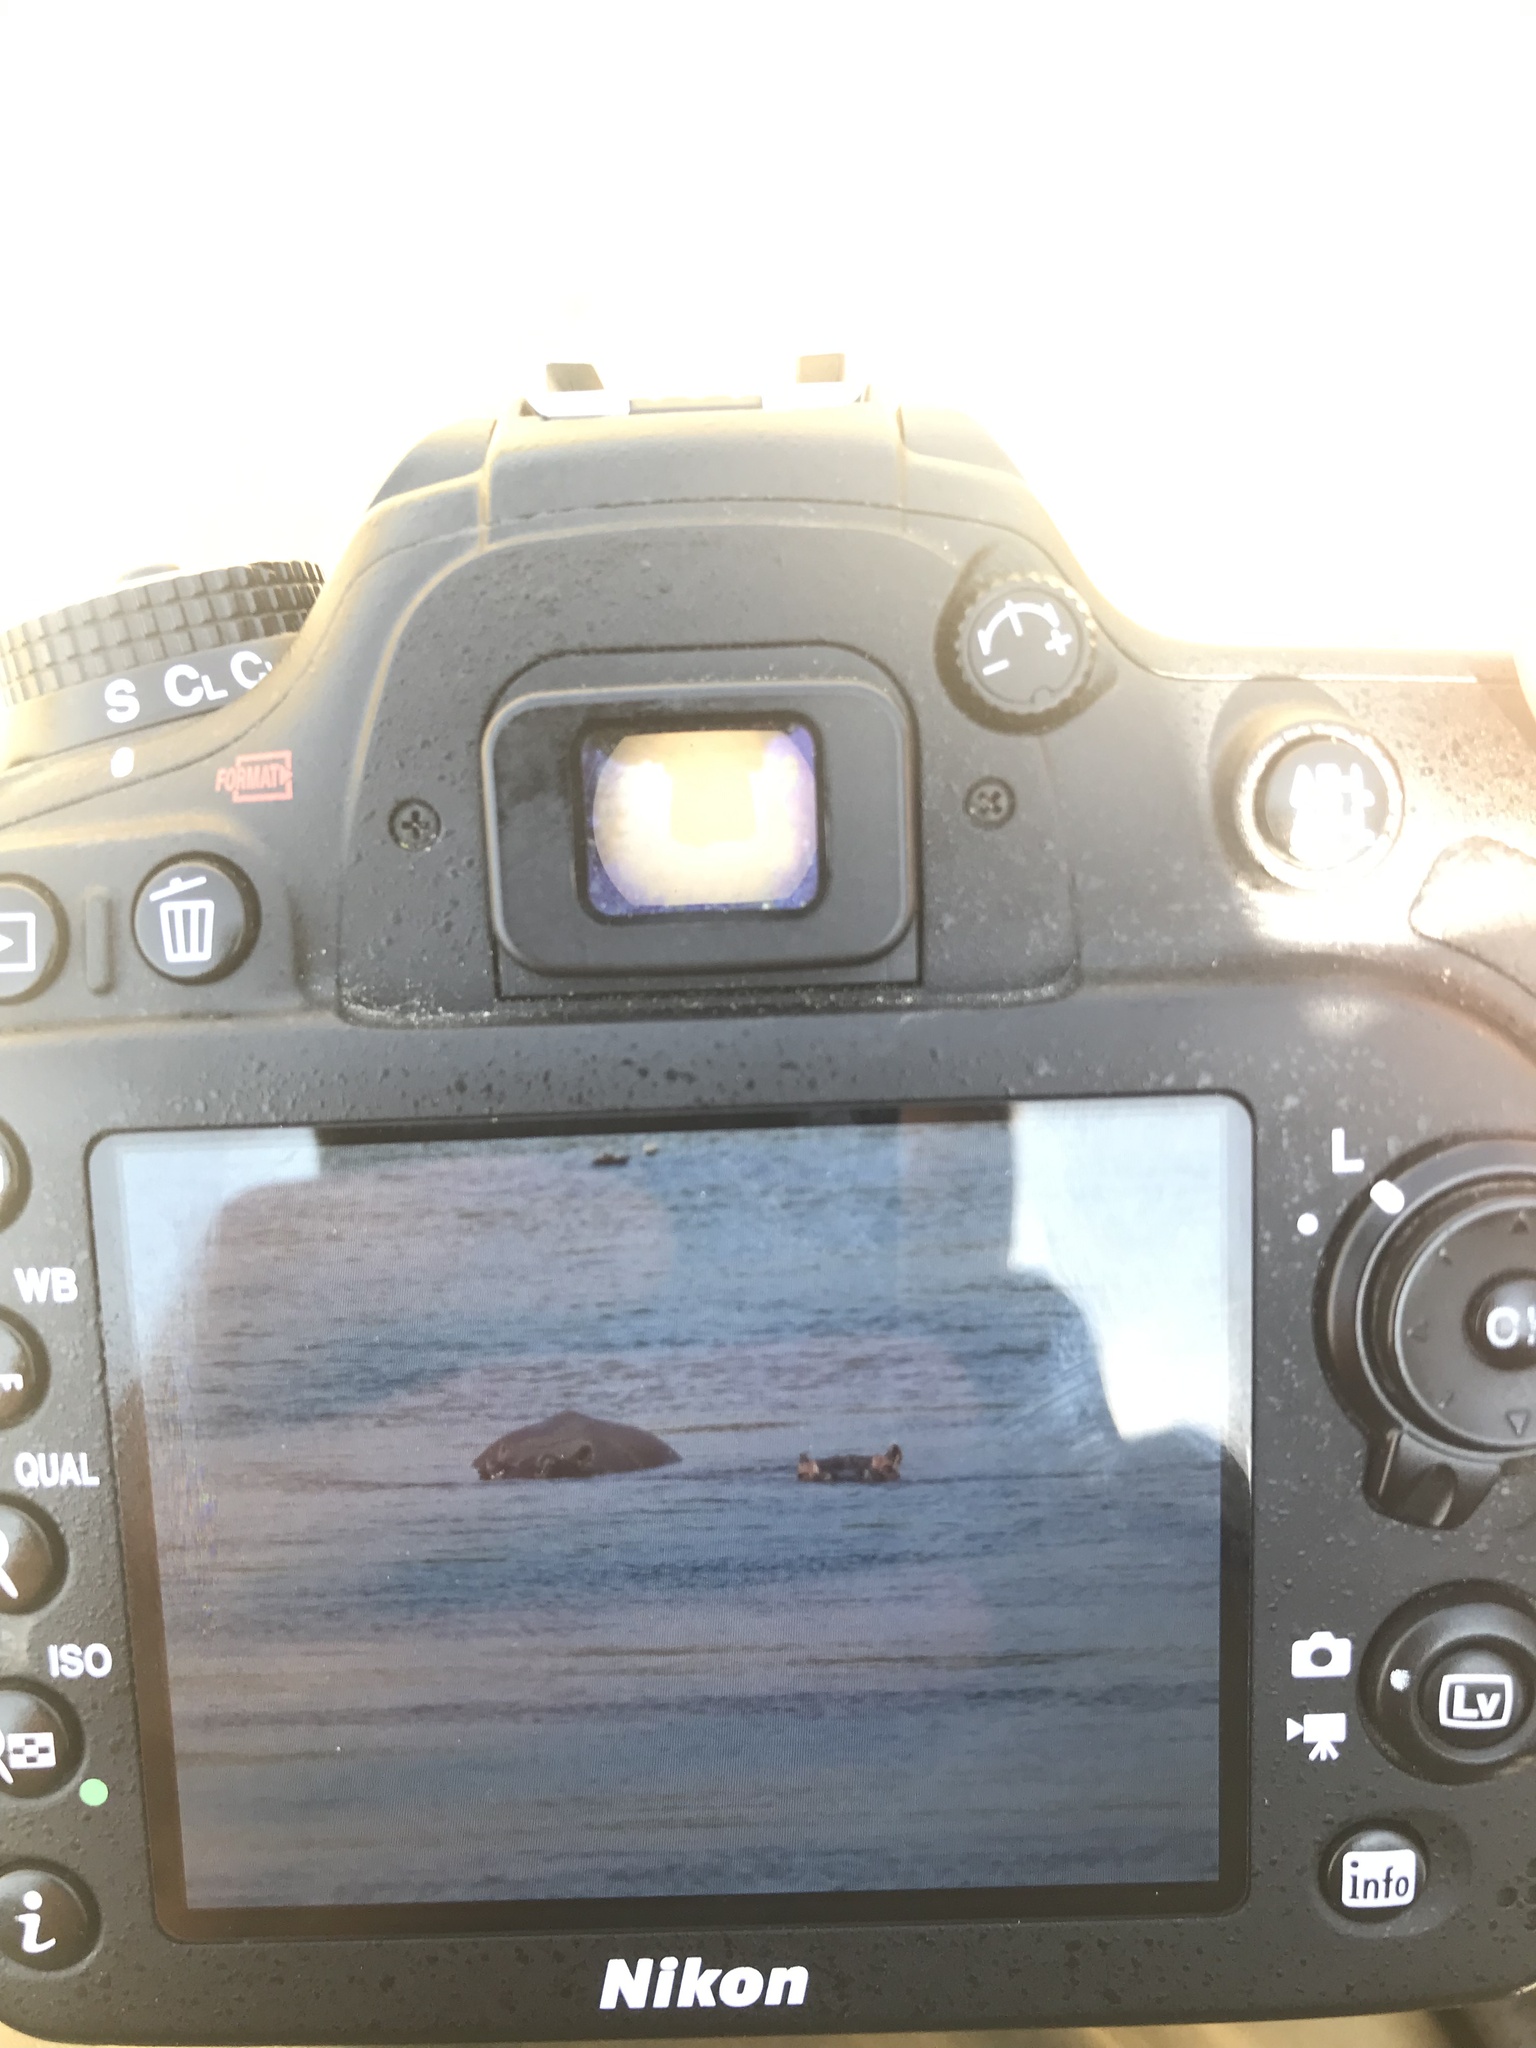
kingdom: Animalia
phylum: Chordata
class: Mammalia
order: Artiodactyla
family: Hippopotamidae
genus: Hippopotamus
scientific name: Hippopotamus amphibius
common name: Common hippopotamus
